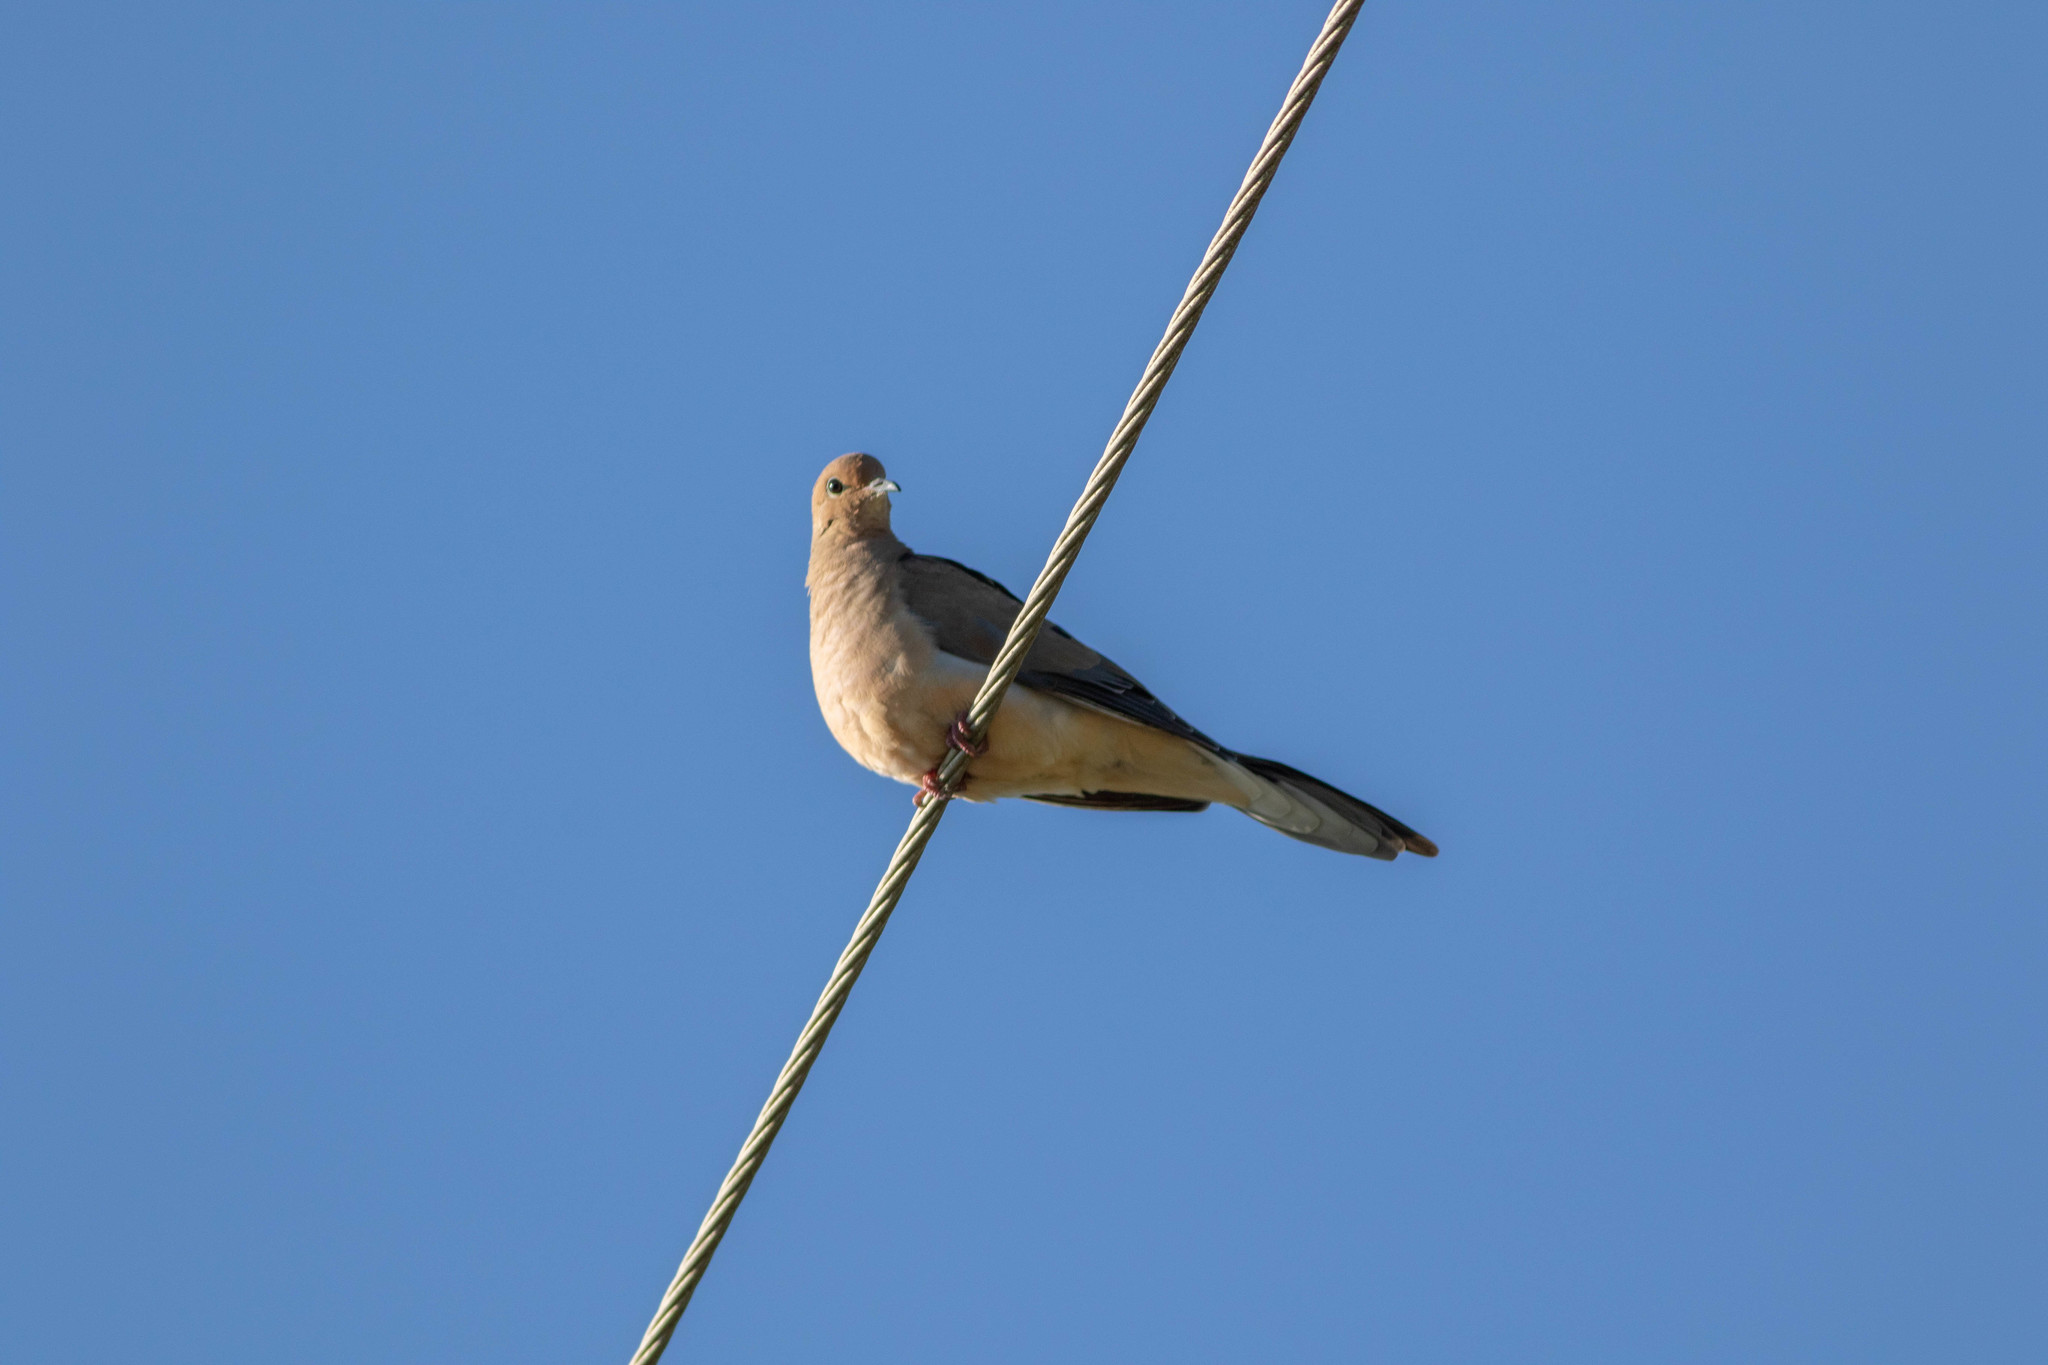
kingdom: Animalia
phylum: Chordata
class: Aves
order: Columbiformes
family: Columbidae
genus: Zenaida
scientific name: Zenaida macroura
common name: Mourning dove
